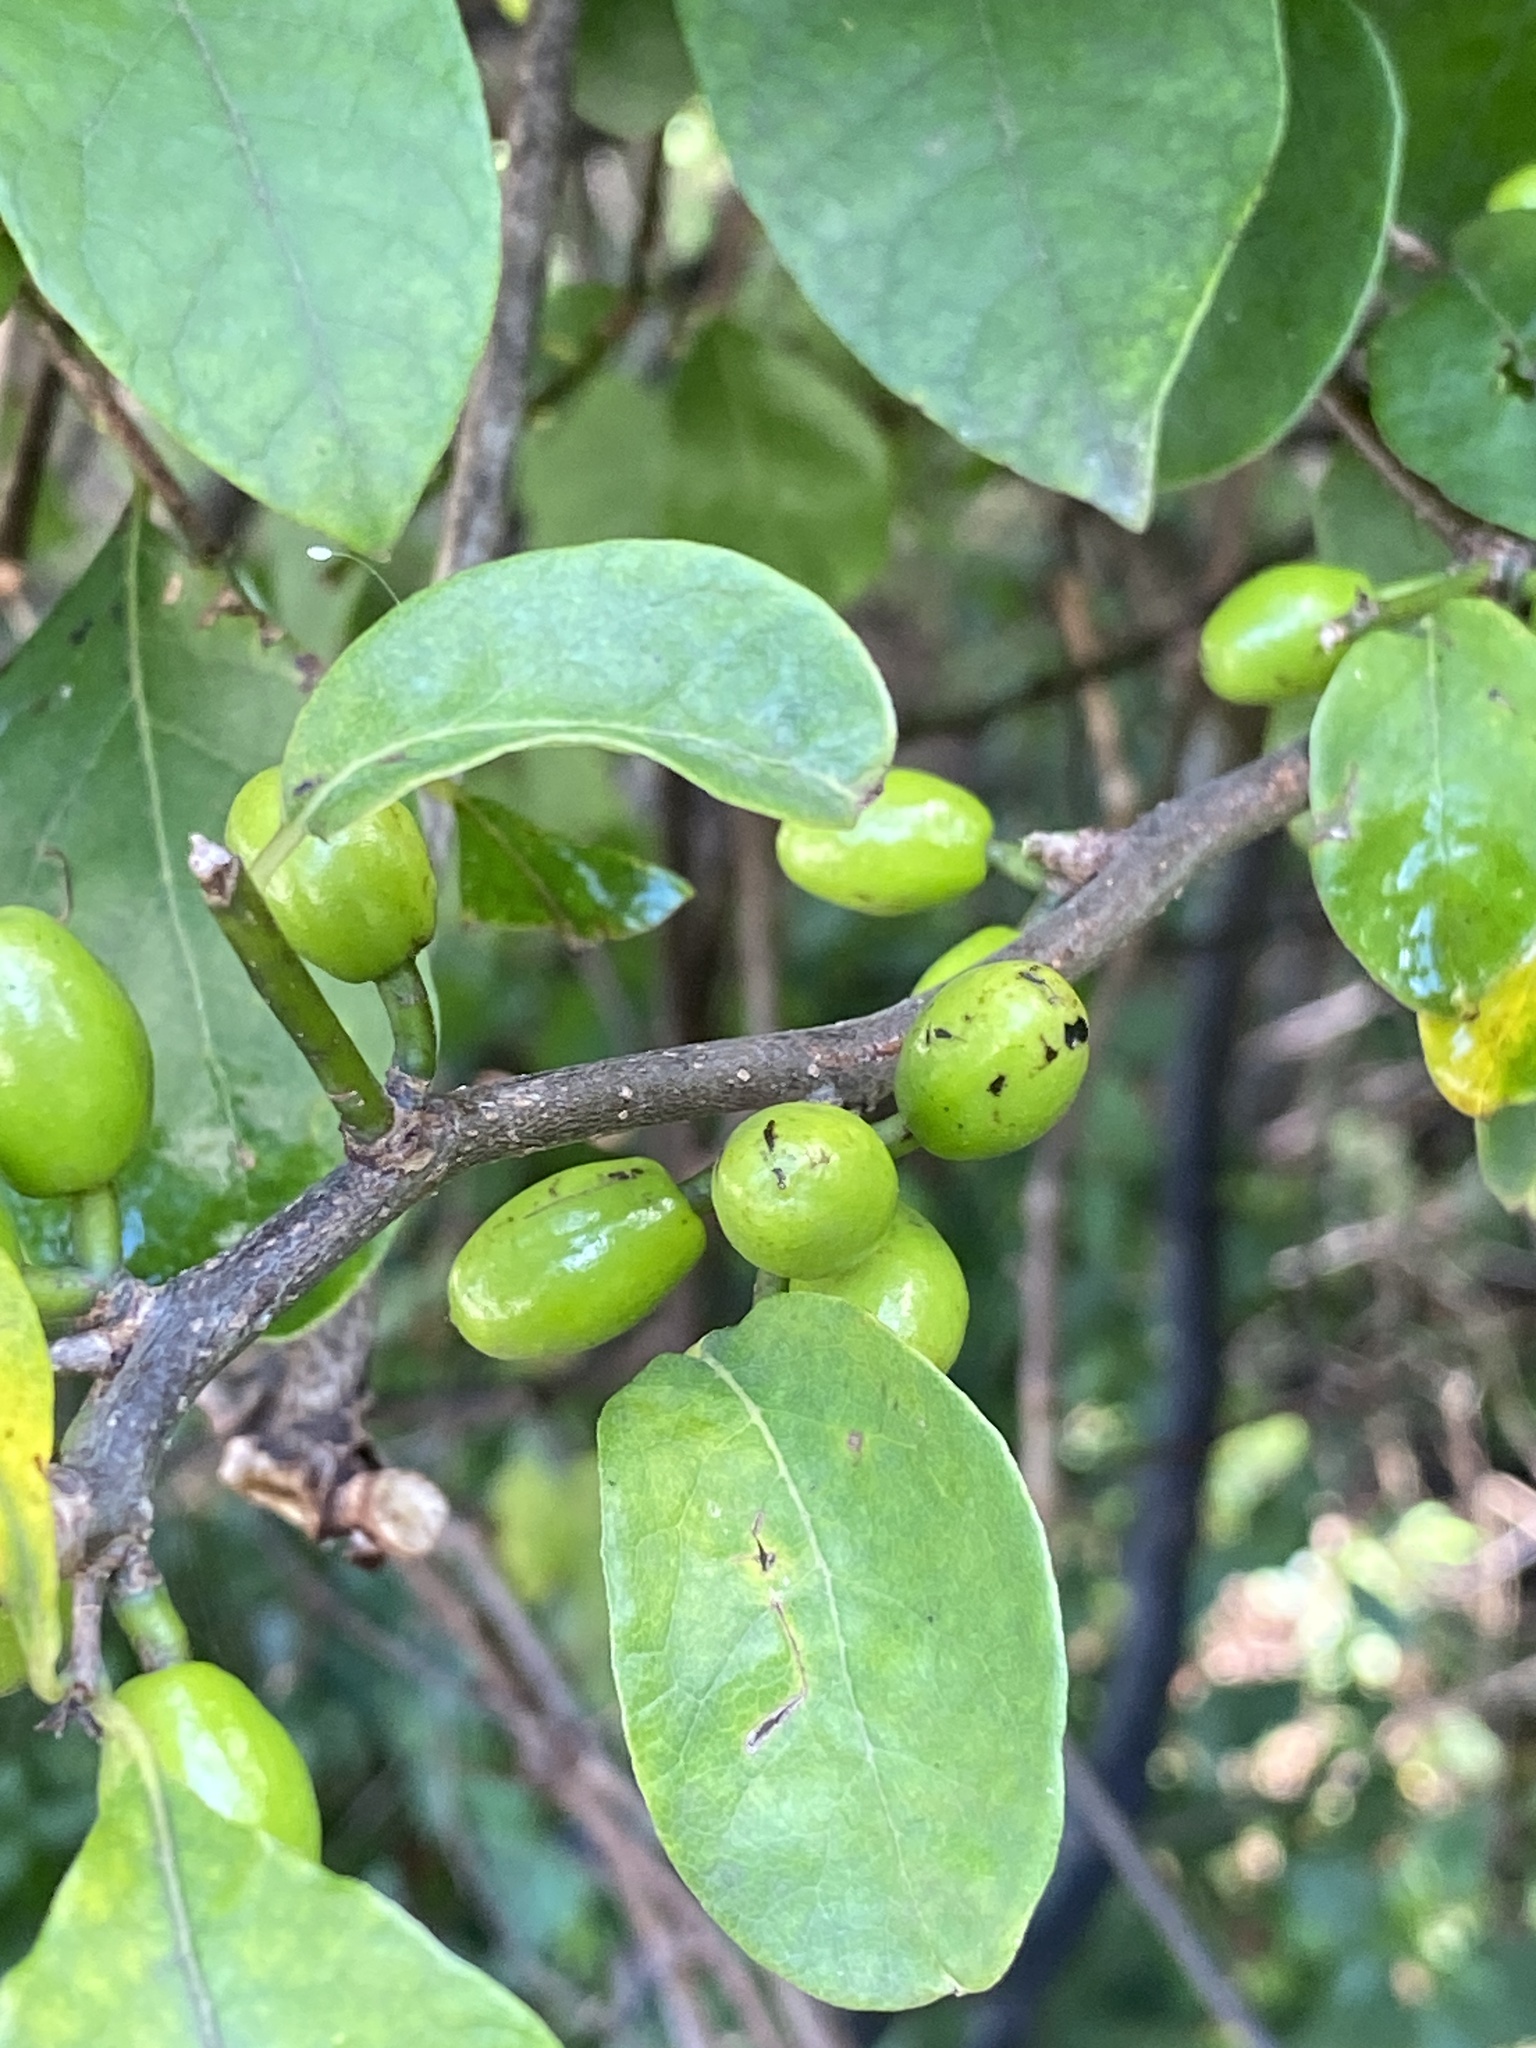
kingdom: Plantae
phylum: Tracheophyta
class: Magnoliopsida
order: Laurales
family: Lauraceae
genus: Lindera
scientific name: Lindera benzoin
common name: Spicebush
